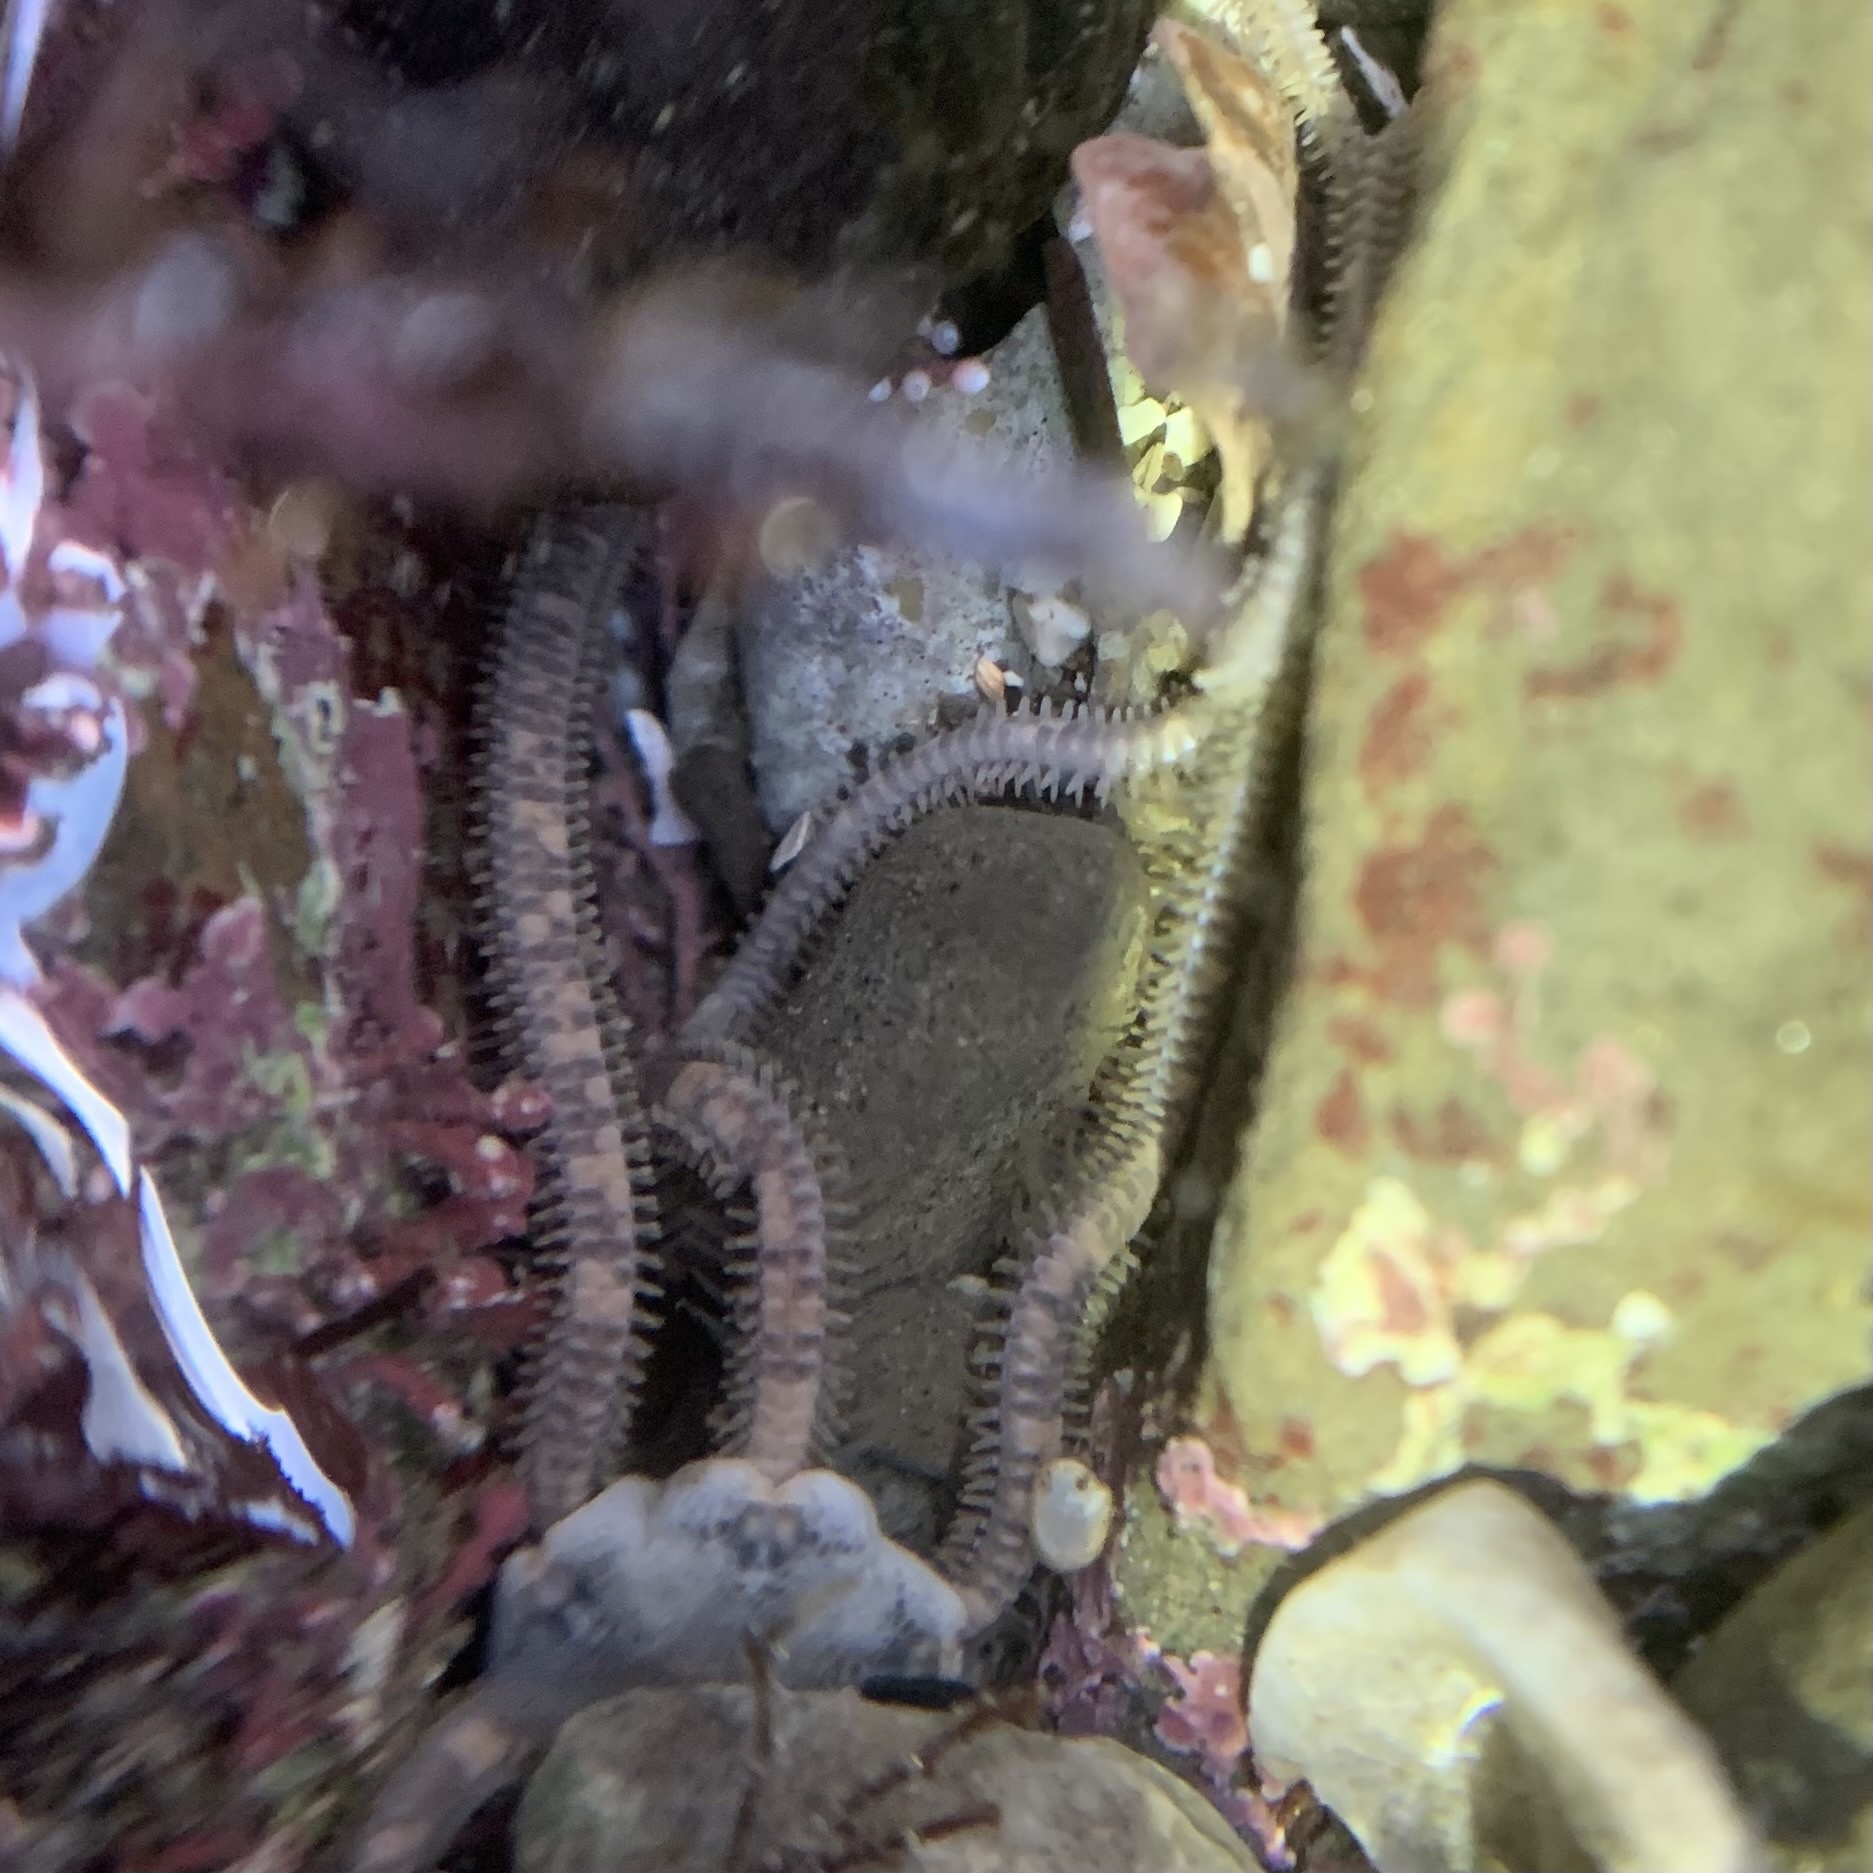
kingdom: Animalia
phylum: Echinodermata
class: Ophiuroidea
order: Amphilepidida
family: Amphiuridae
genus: Amphiodia
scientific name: Amphiodia occidentalis
